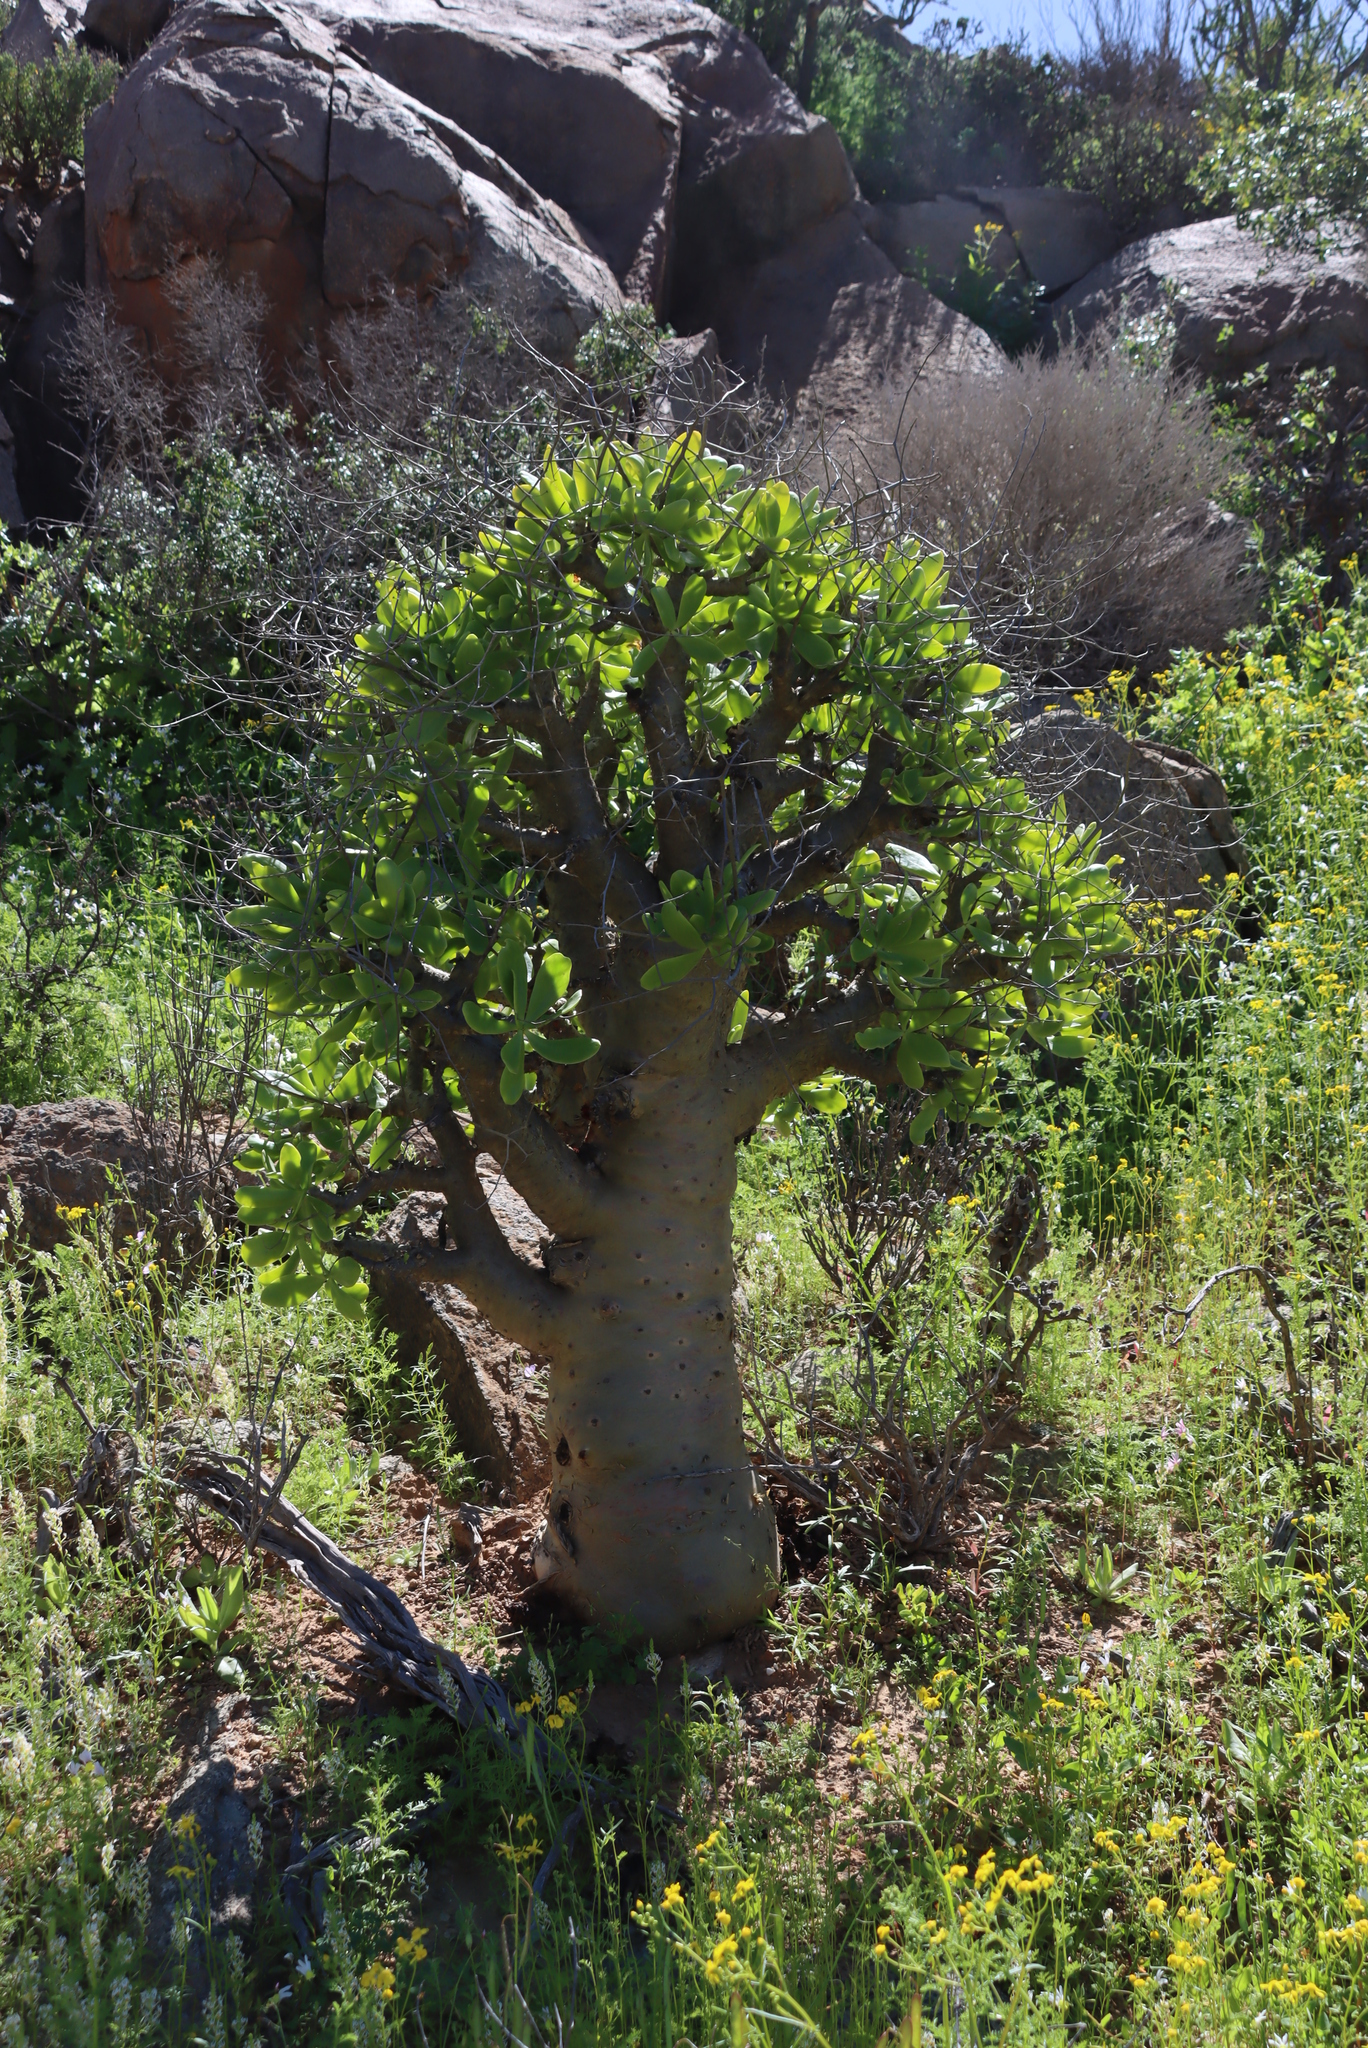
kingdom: Plantae
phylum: Tracheophyta
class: Magnoliopsida
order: Saxifragales
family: Crassulaceae
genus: Tylecodon
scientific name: Tylecodon paniculatus
